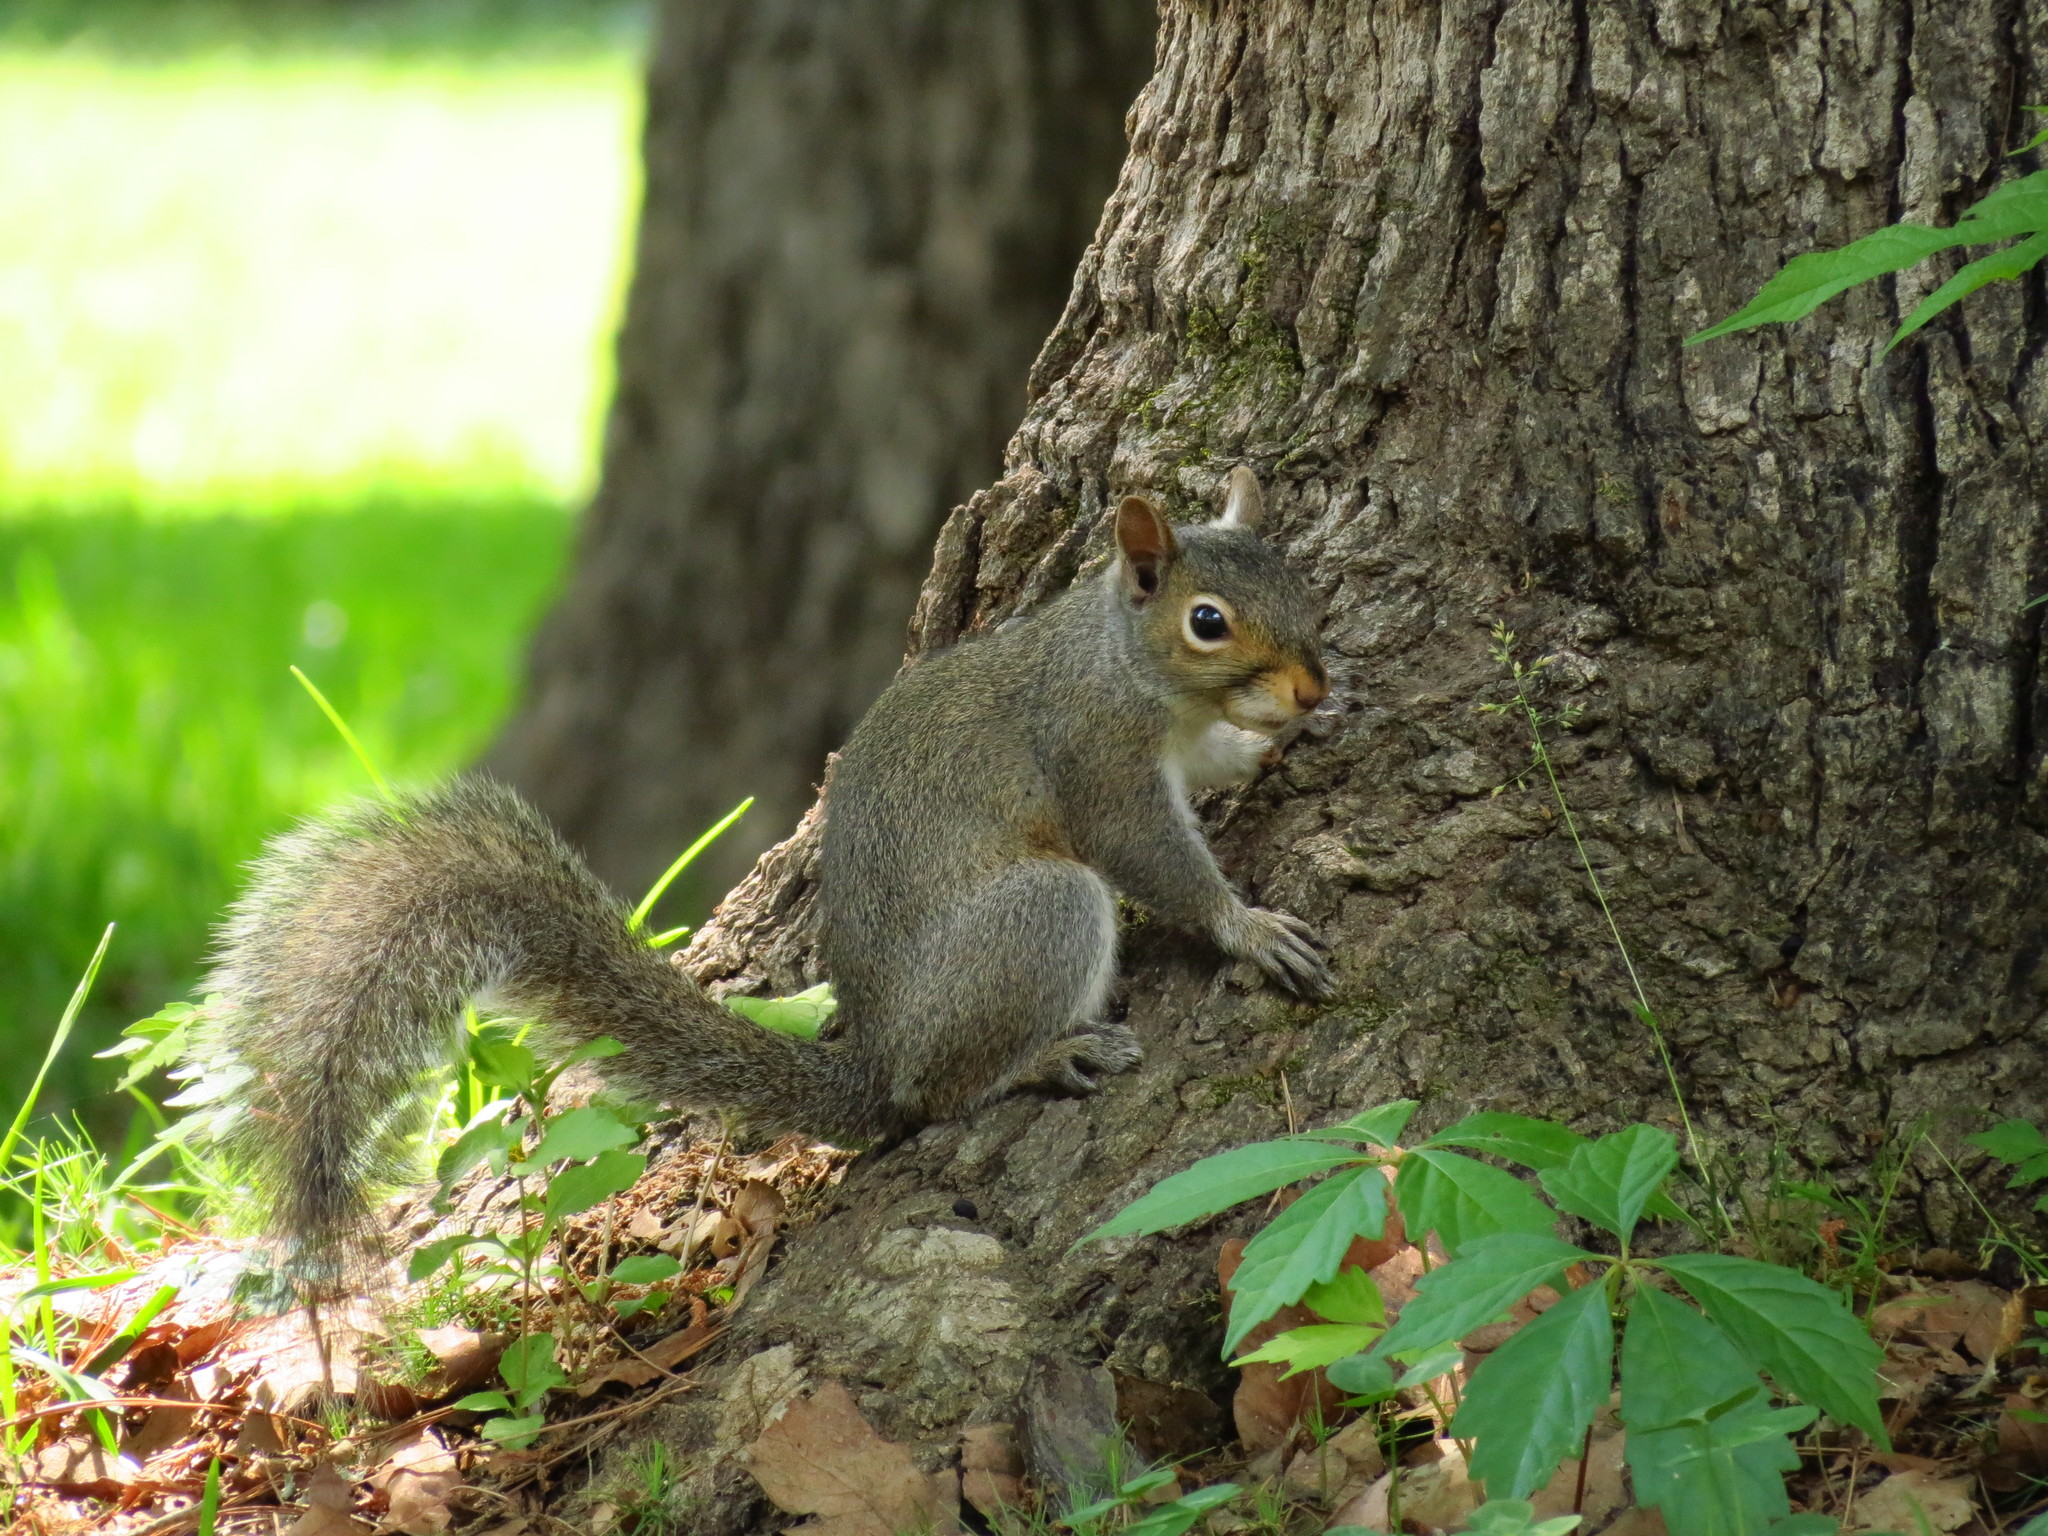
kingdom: Animalia
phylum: Chordata
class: Mammalia
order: Rodentia
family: Sciuridae
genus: Sciurus
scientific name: Sciurus carolinensis
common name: Eastern gray squirrel
